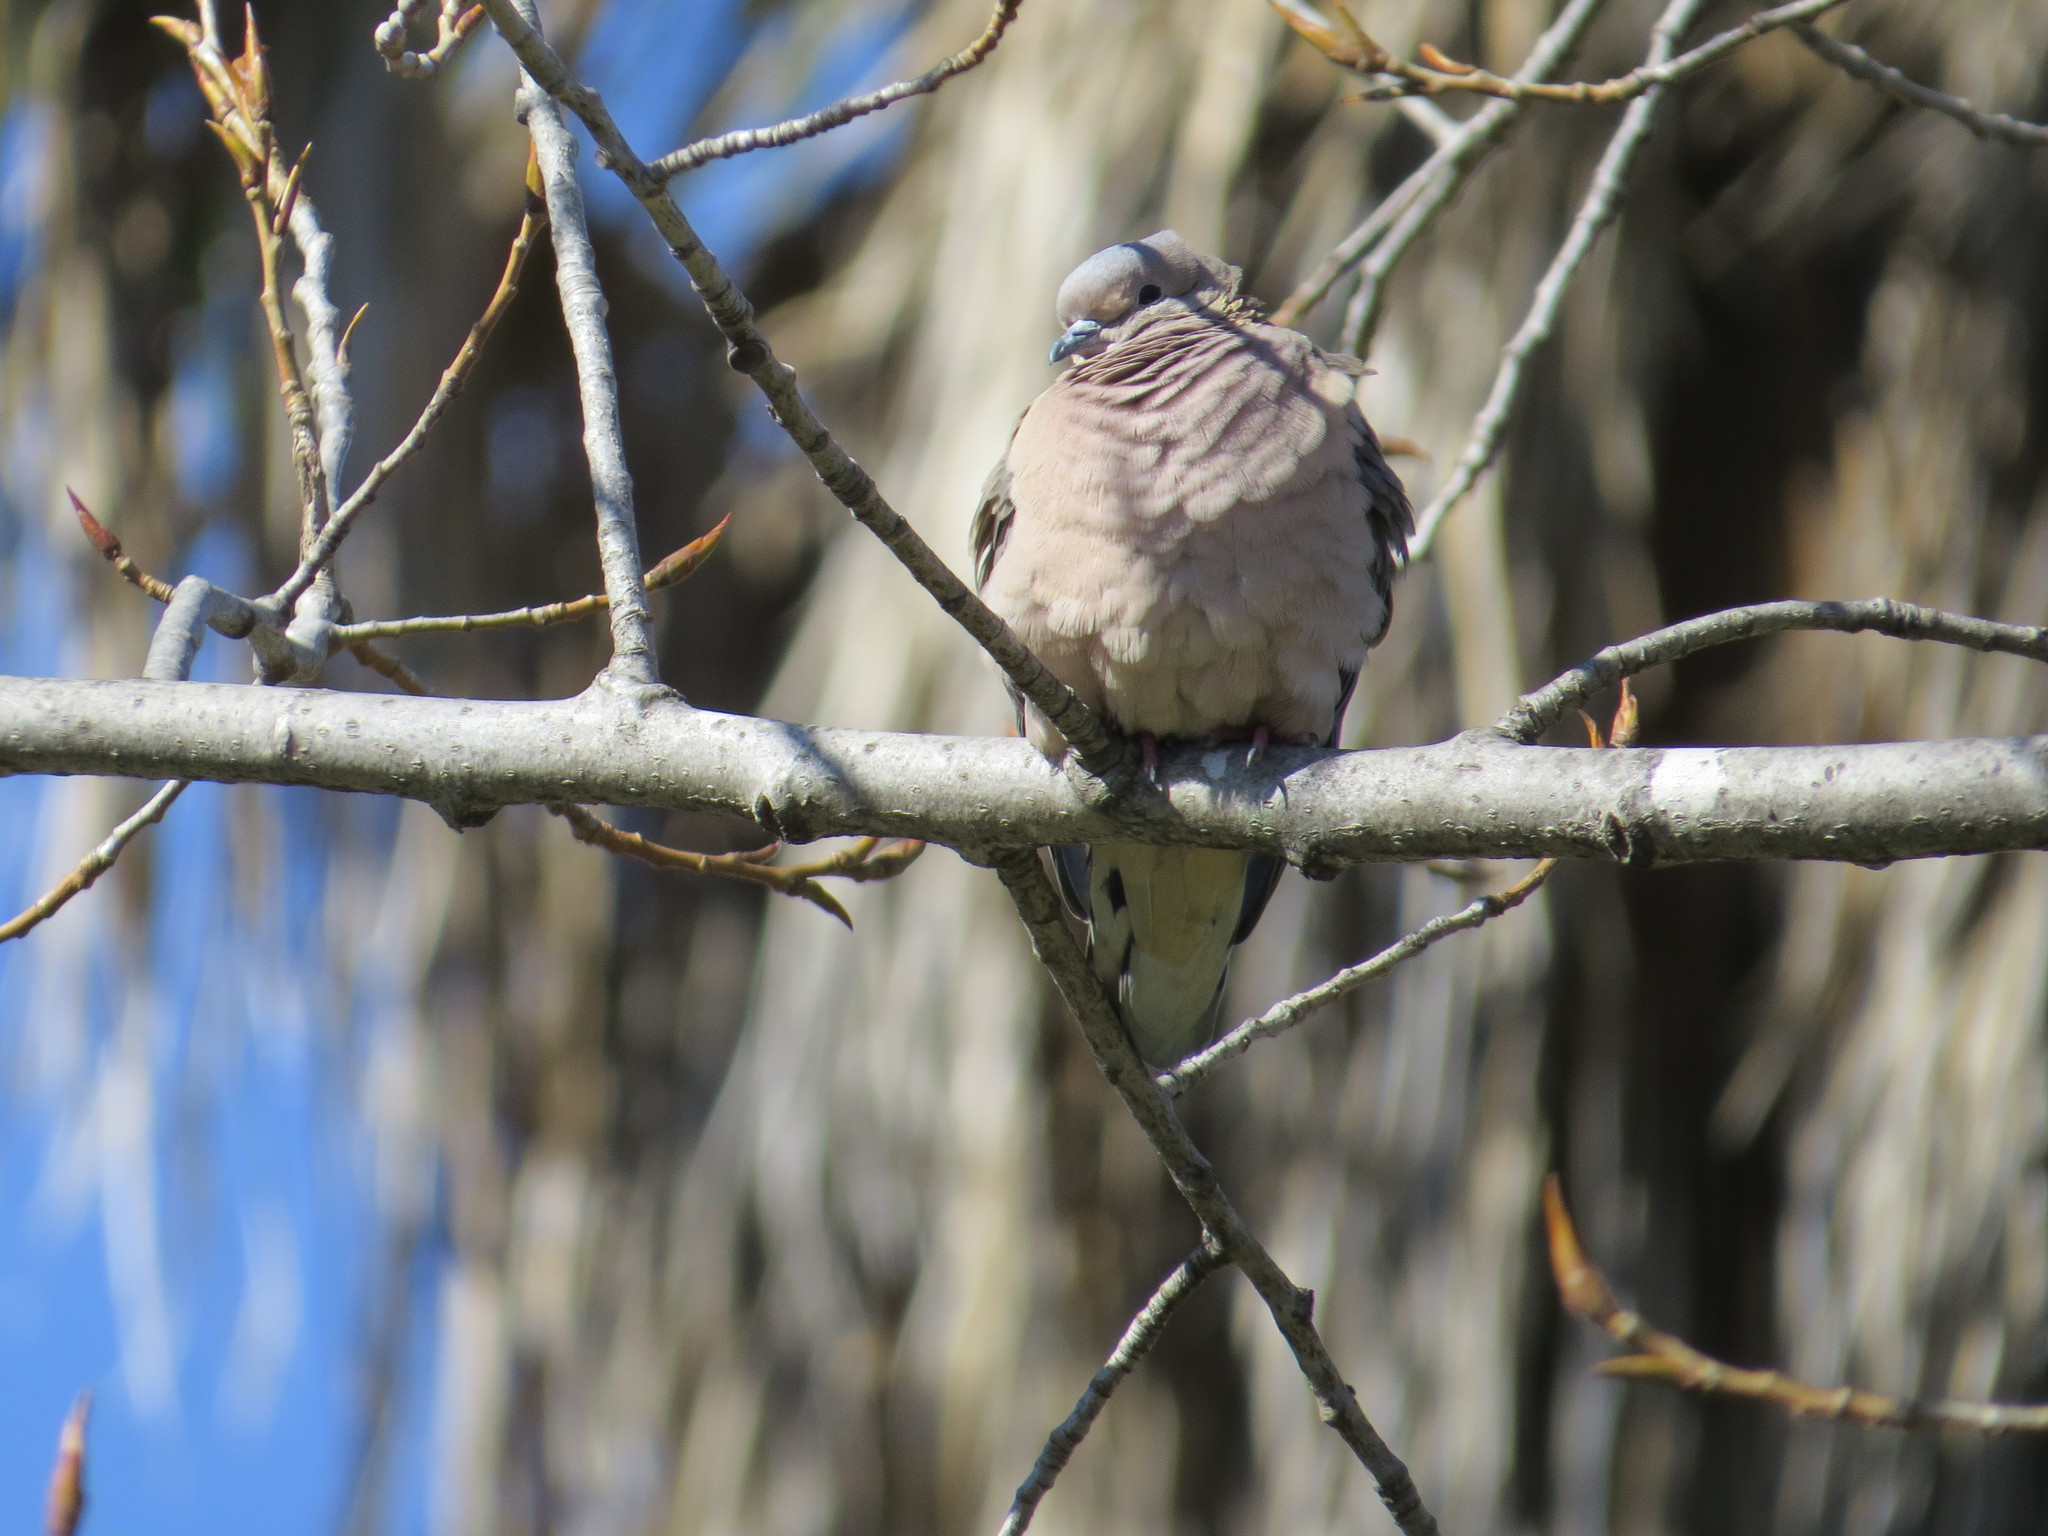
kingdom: Animalia
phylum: Chordata
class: Aves
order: Columbiformes
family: Columbidae
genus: Zenaida
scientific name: Zenaida auriculata
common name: Eared dove
